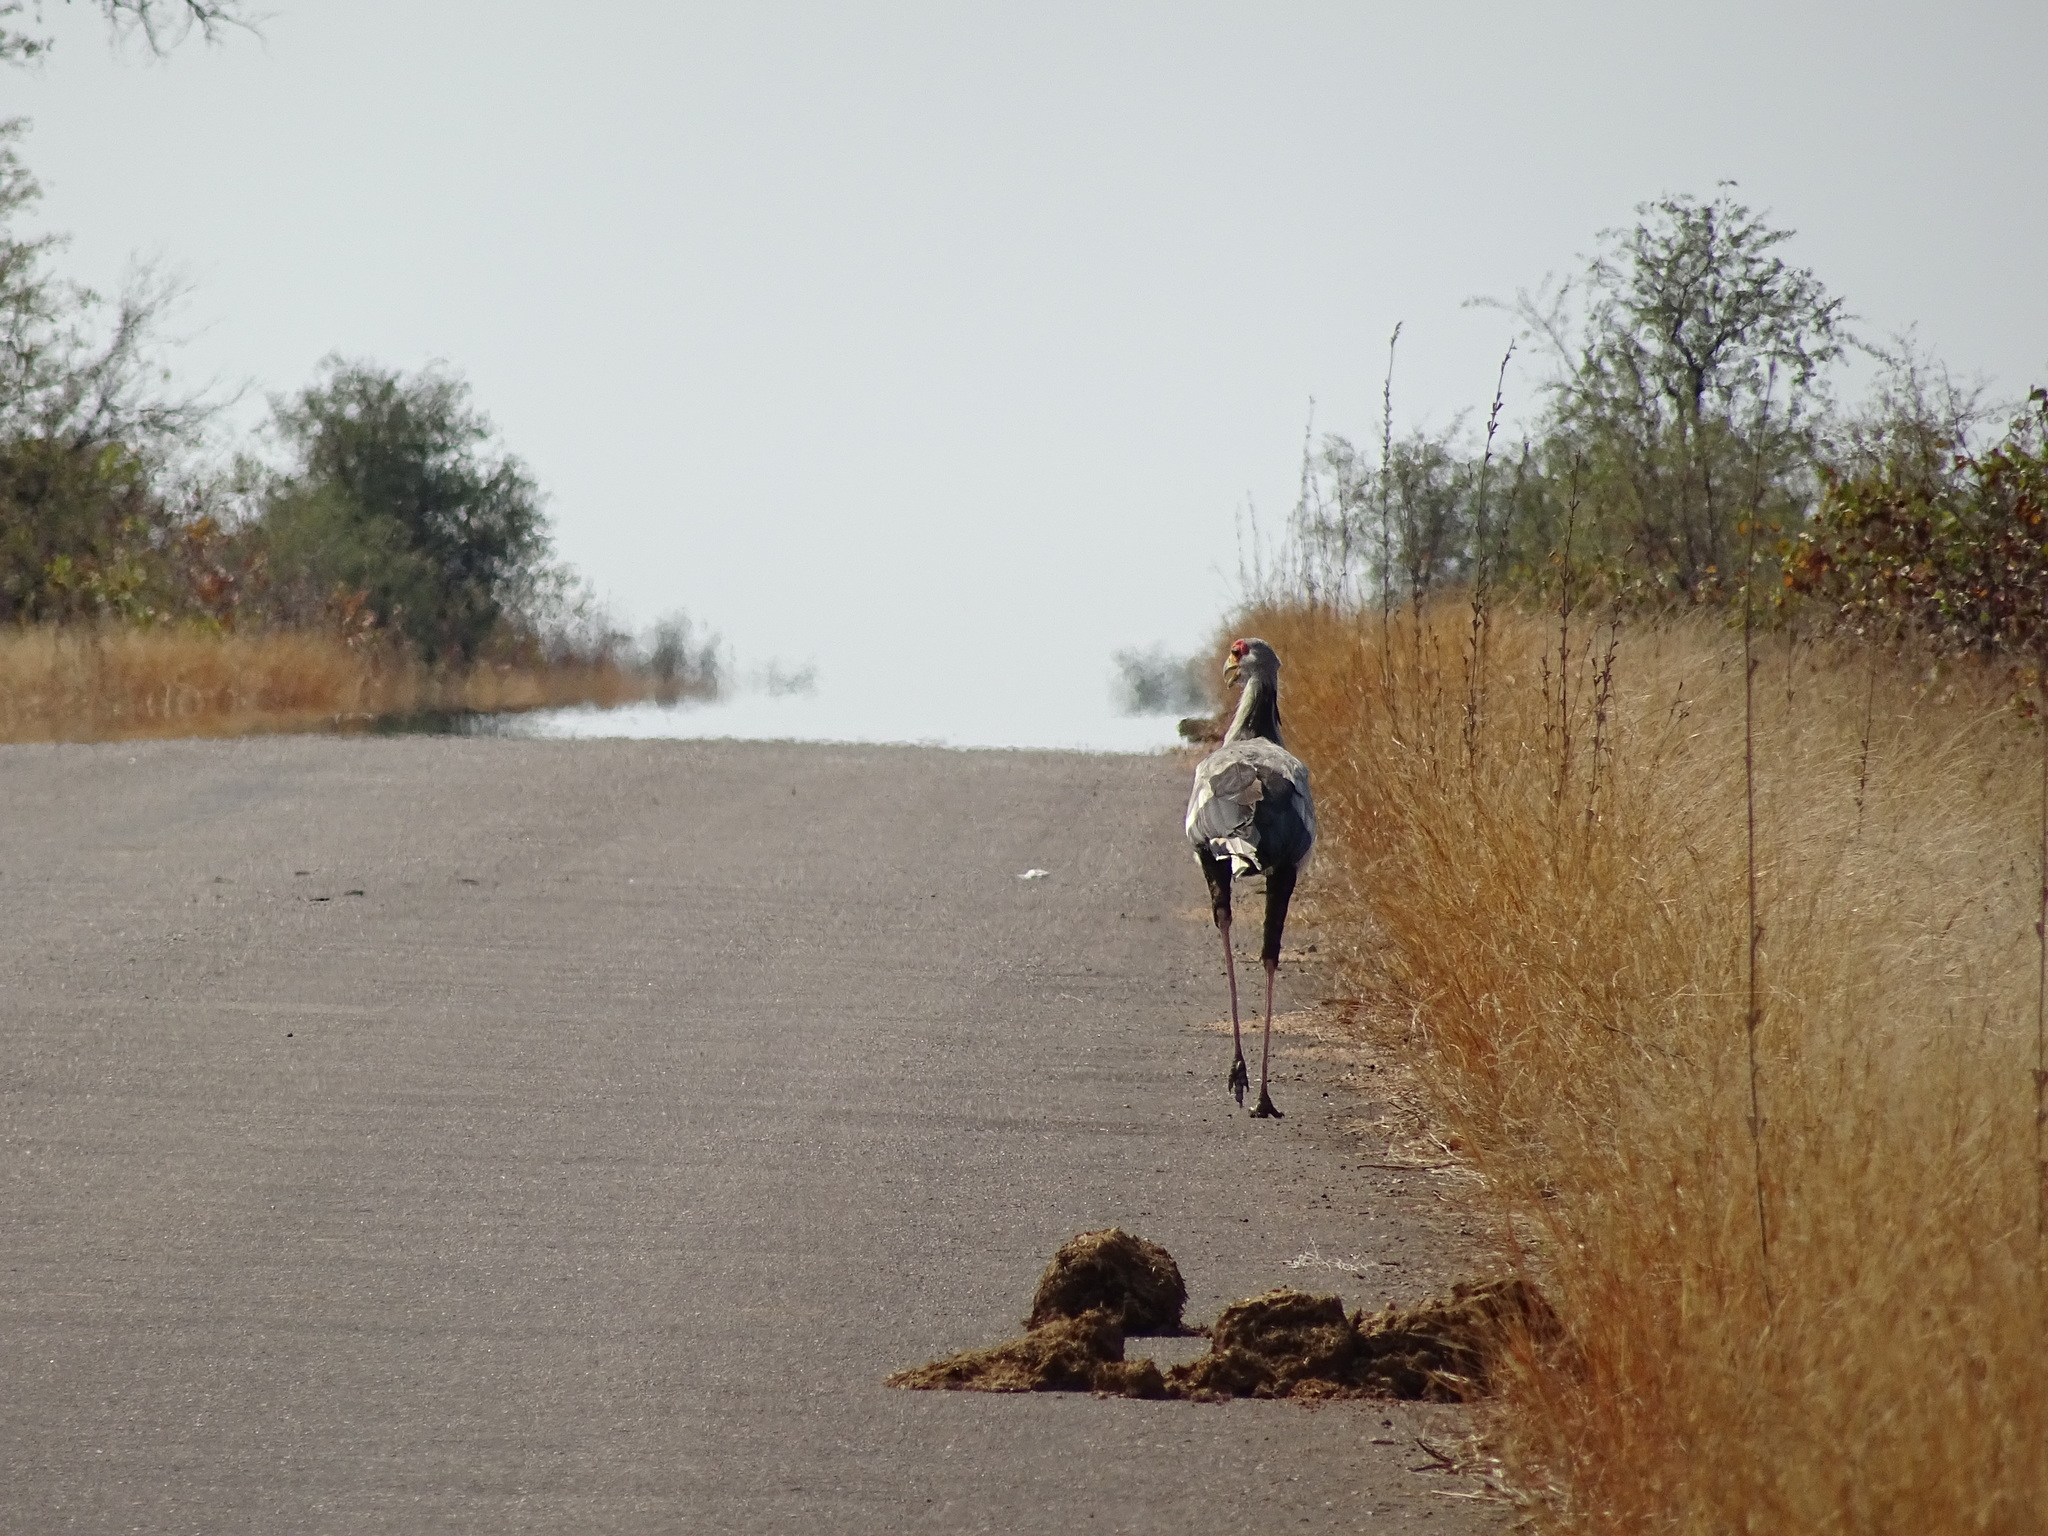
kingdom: Animalia
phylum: Chordata
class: Aves
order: Accipitriformes
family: Sagittariidae
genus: Sagittarius
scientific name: Sagittarius serpentarius
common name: Secretarybird
